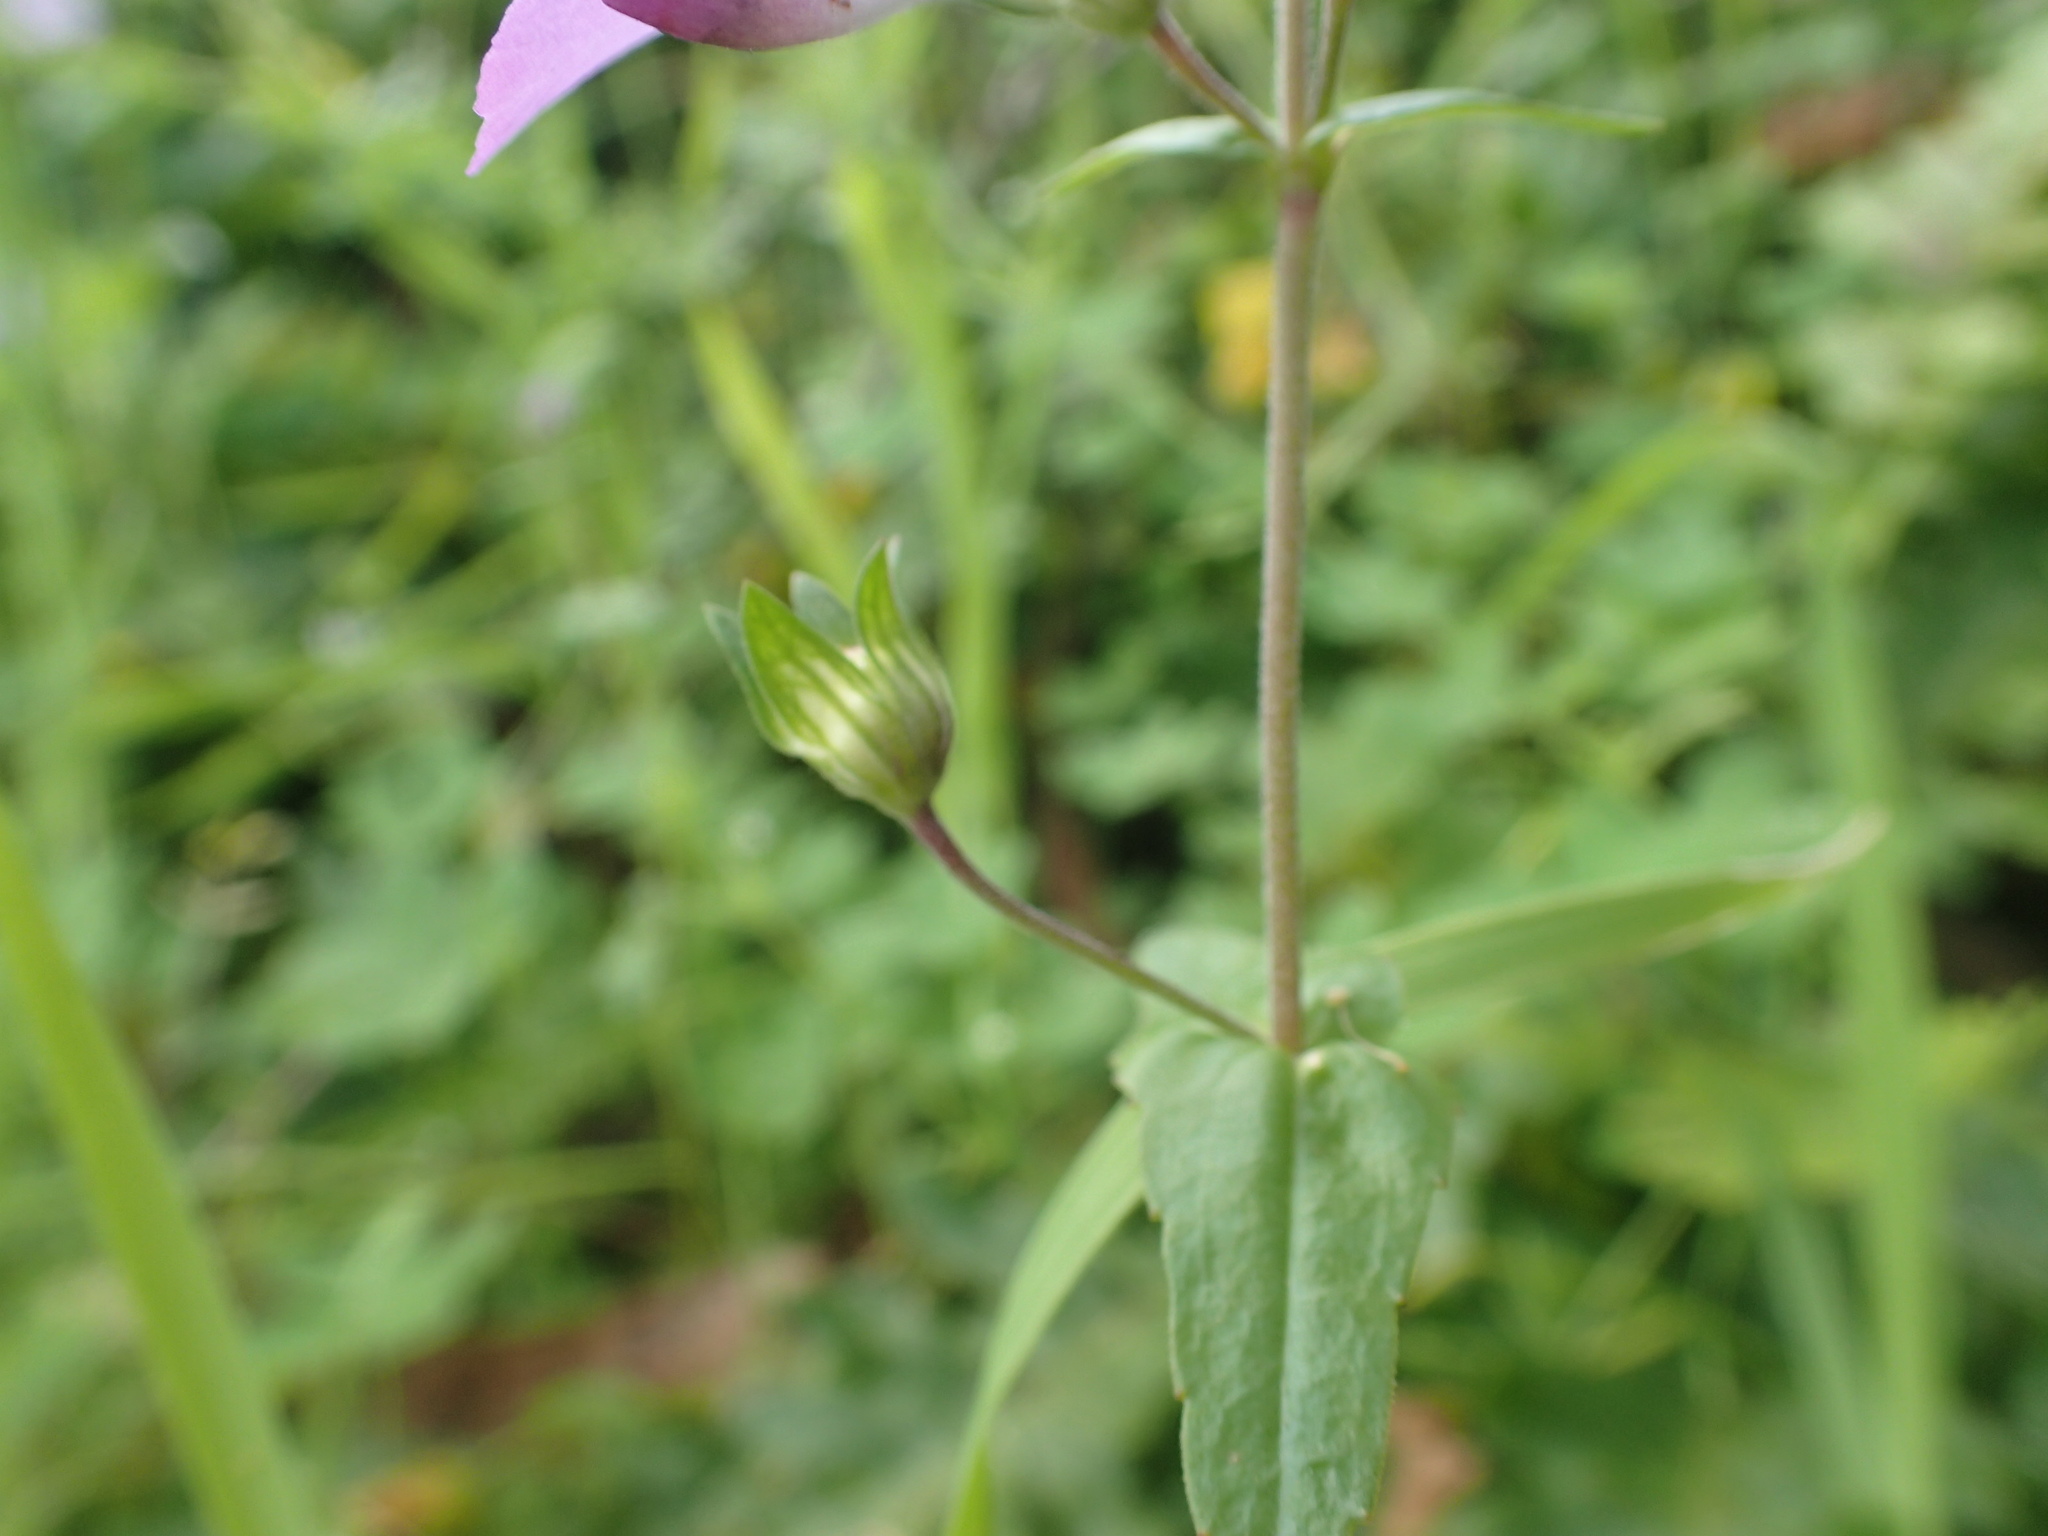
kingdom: Plantae
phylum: Tracheophyta
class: Magnoliopsida
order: Lamiales
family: Plantaginaceae
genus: Collinsia
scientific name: Collinsia multicolor
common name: San francisco collinsia
